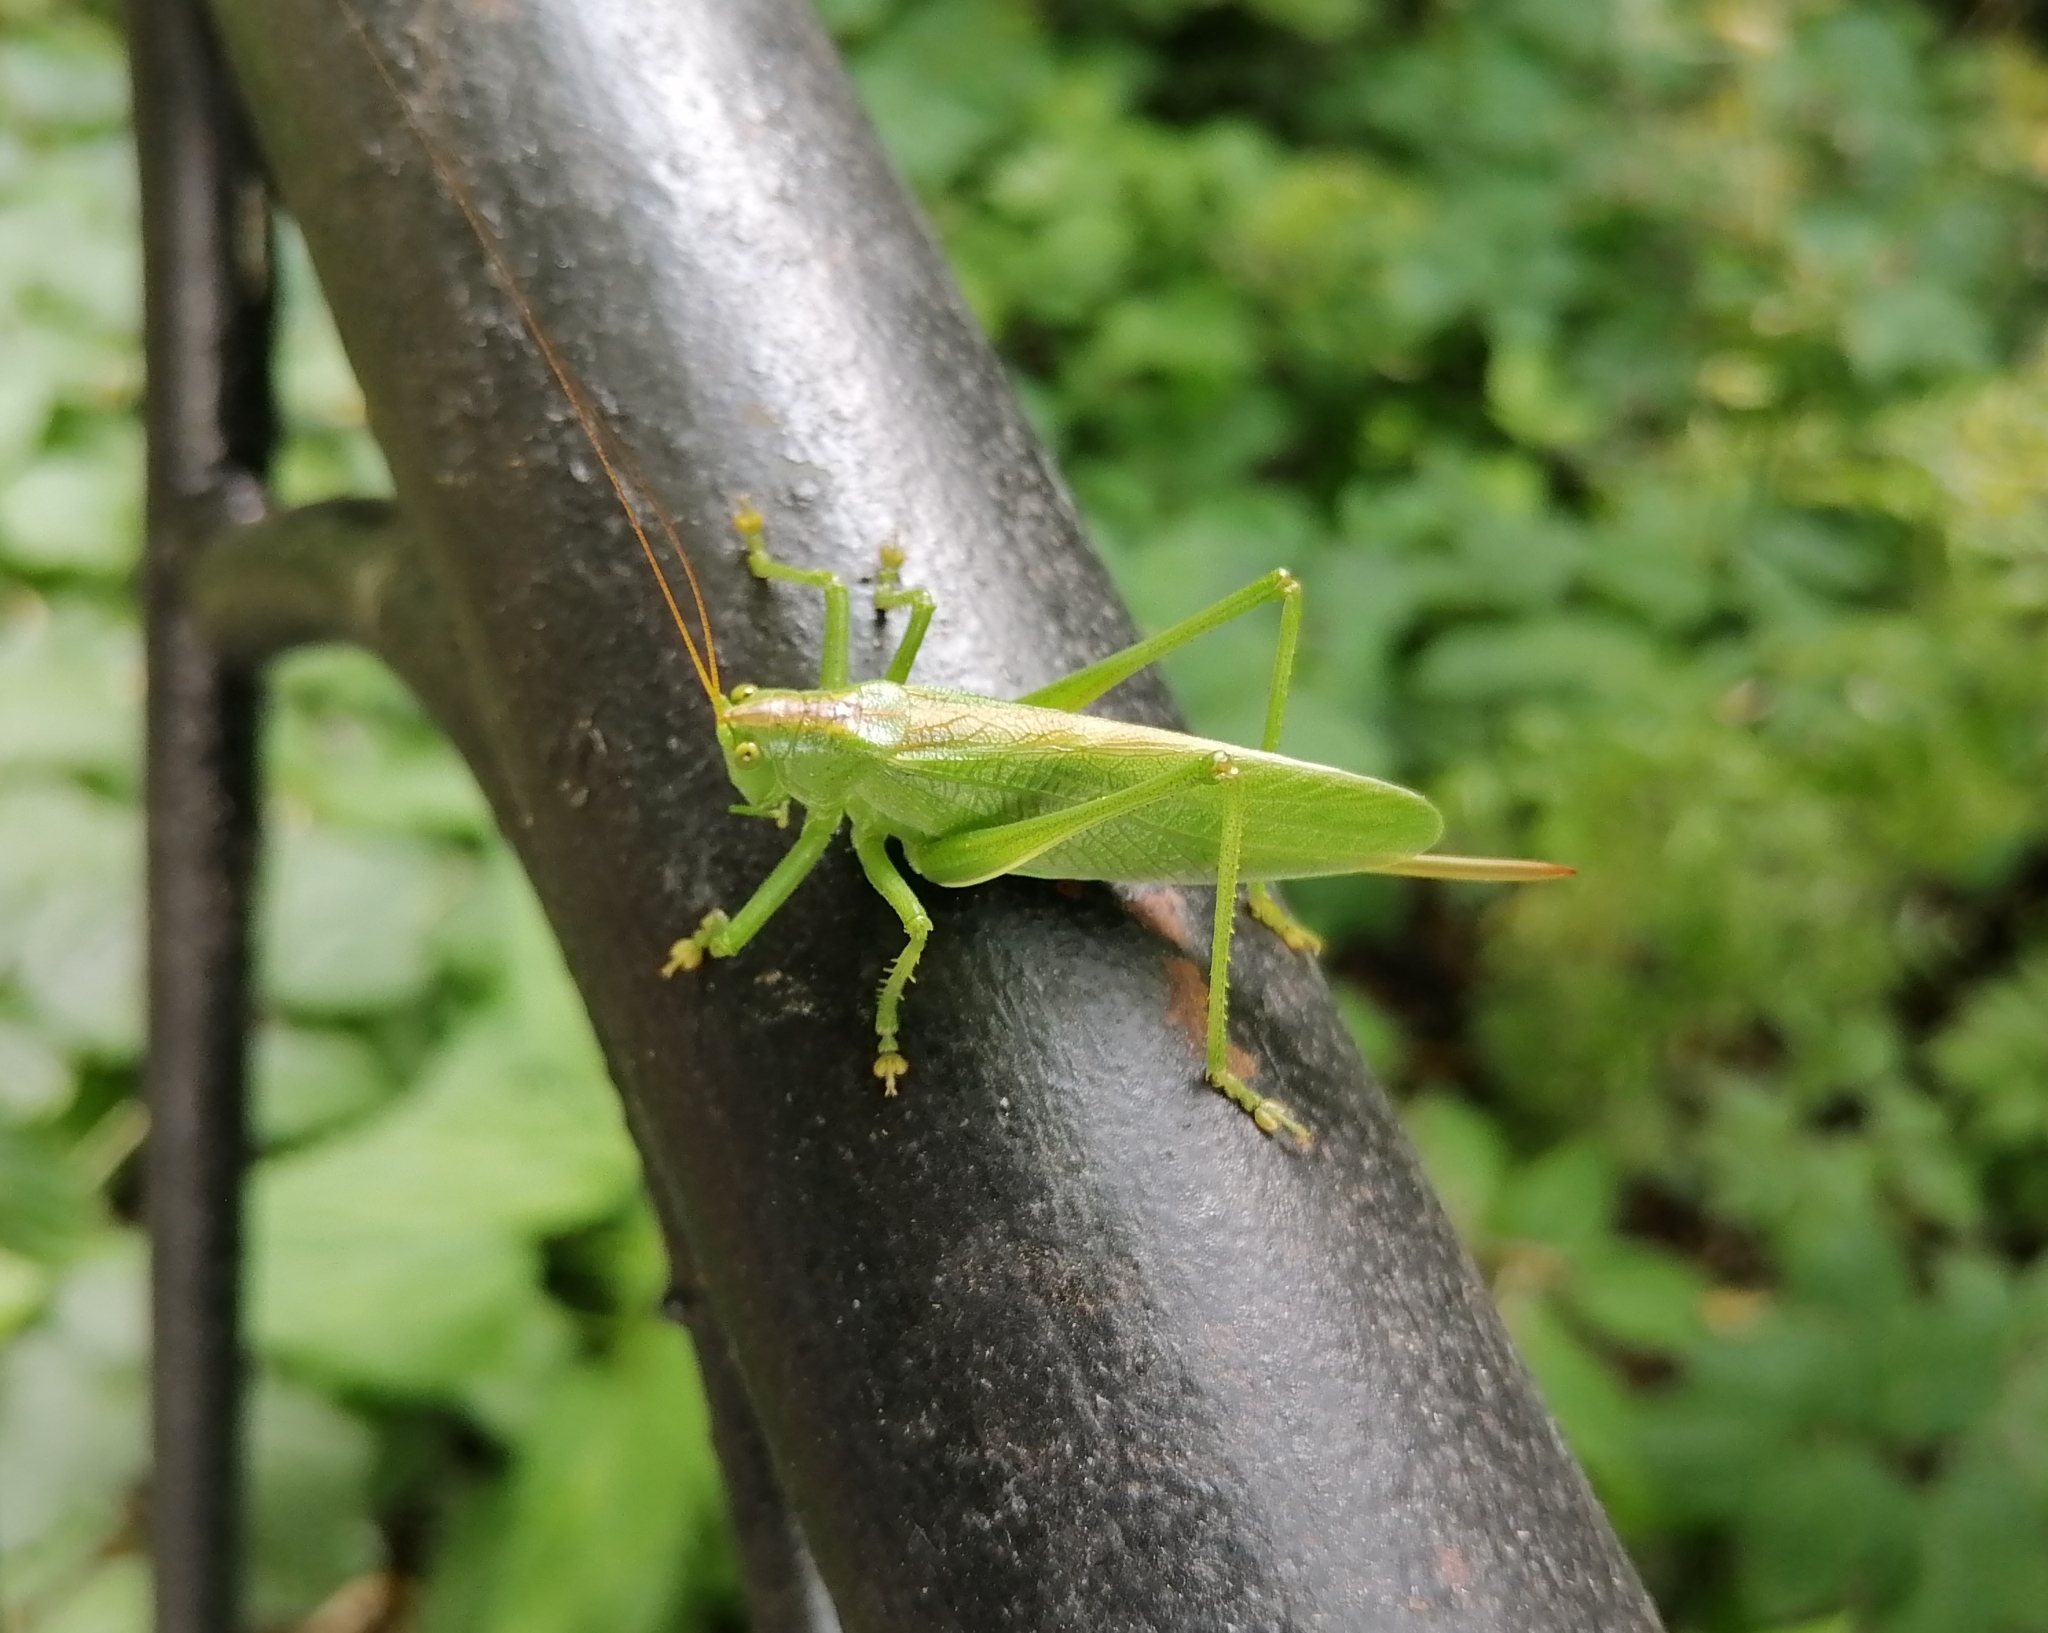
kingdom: Animalia
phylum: Arthropoda
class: Insecta
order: Orthoptera
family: Tettigoniidae
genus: Tettigonia
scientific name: Tettigonia cantans
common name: Upland green bush-cricket
